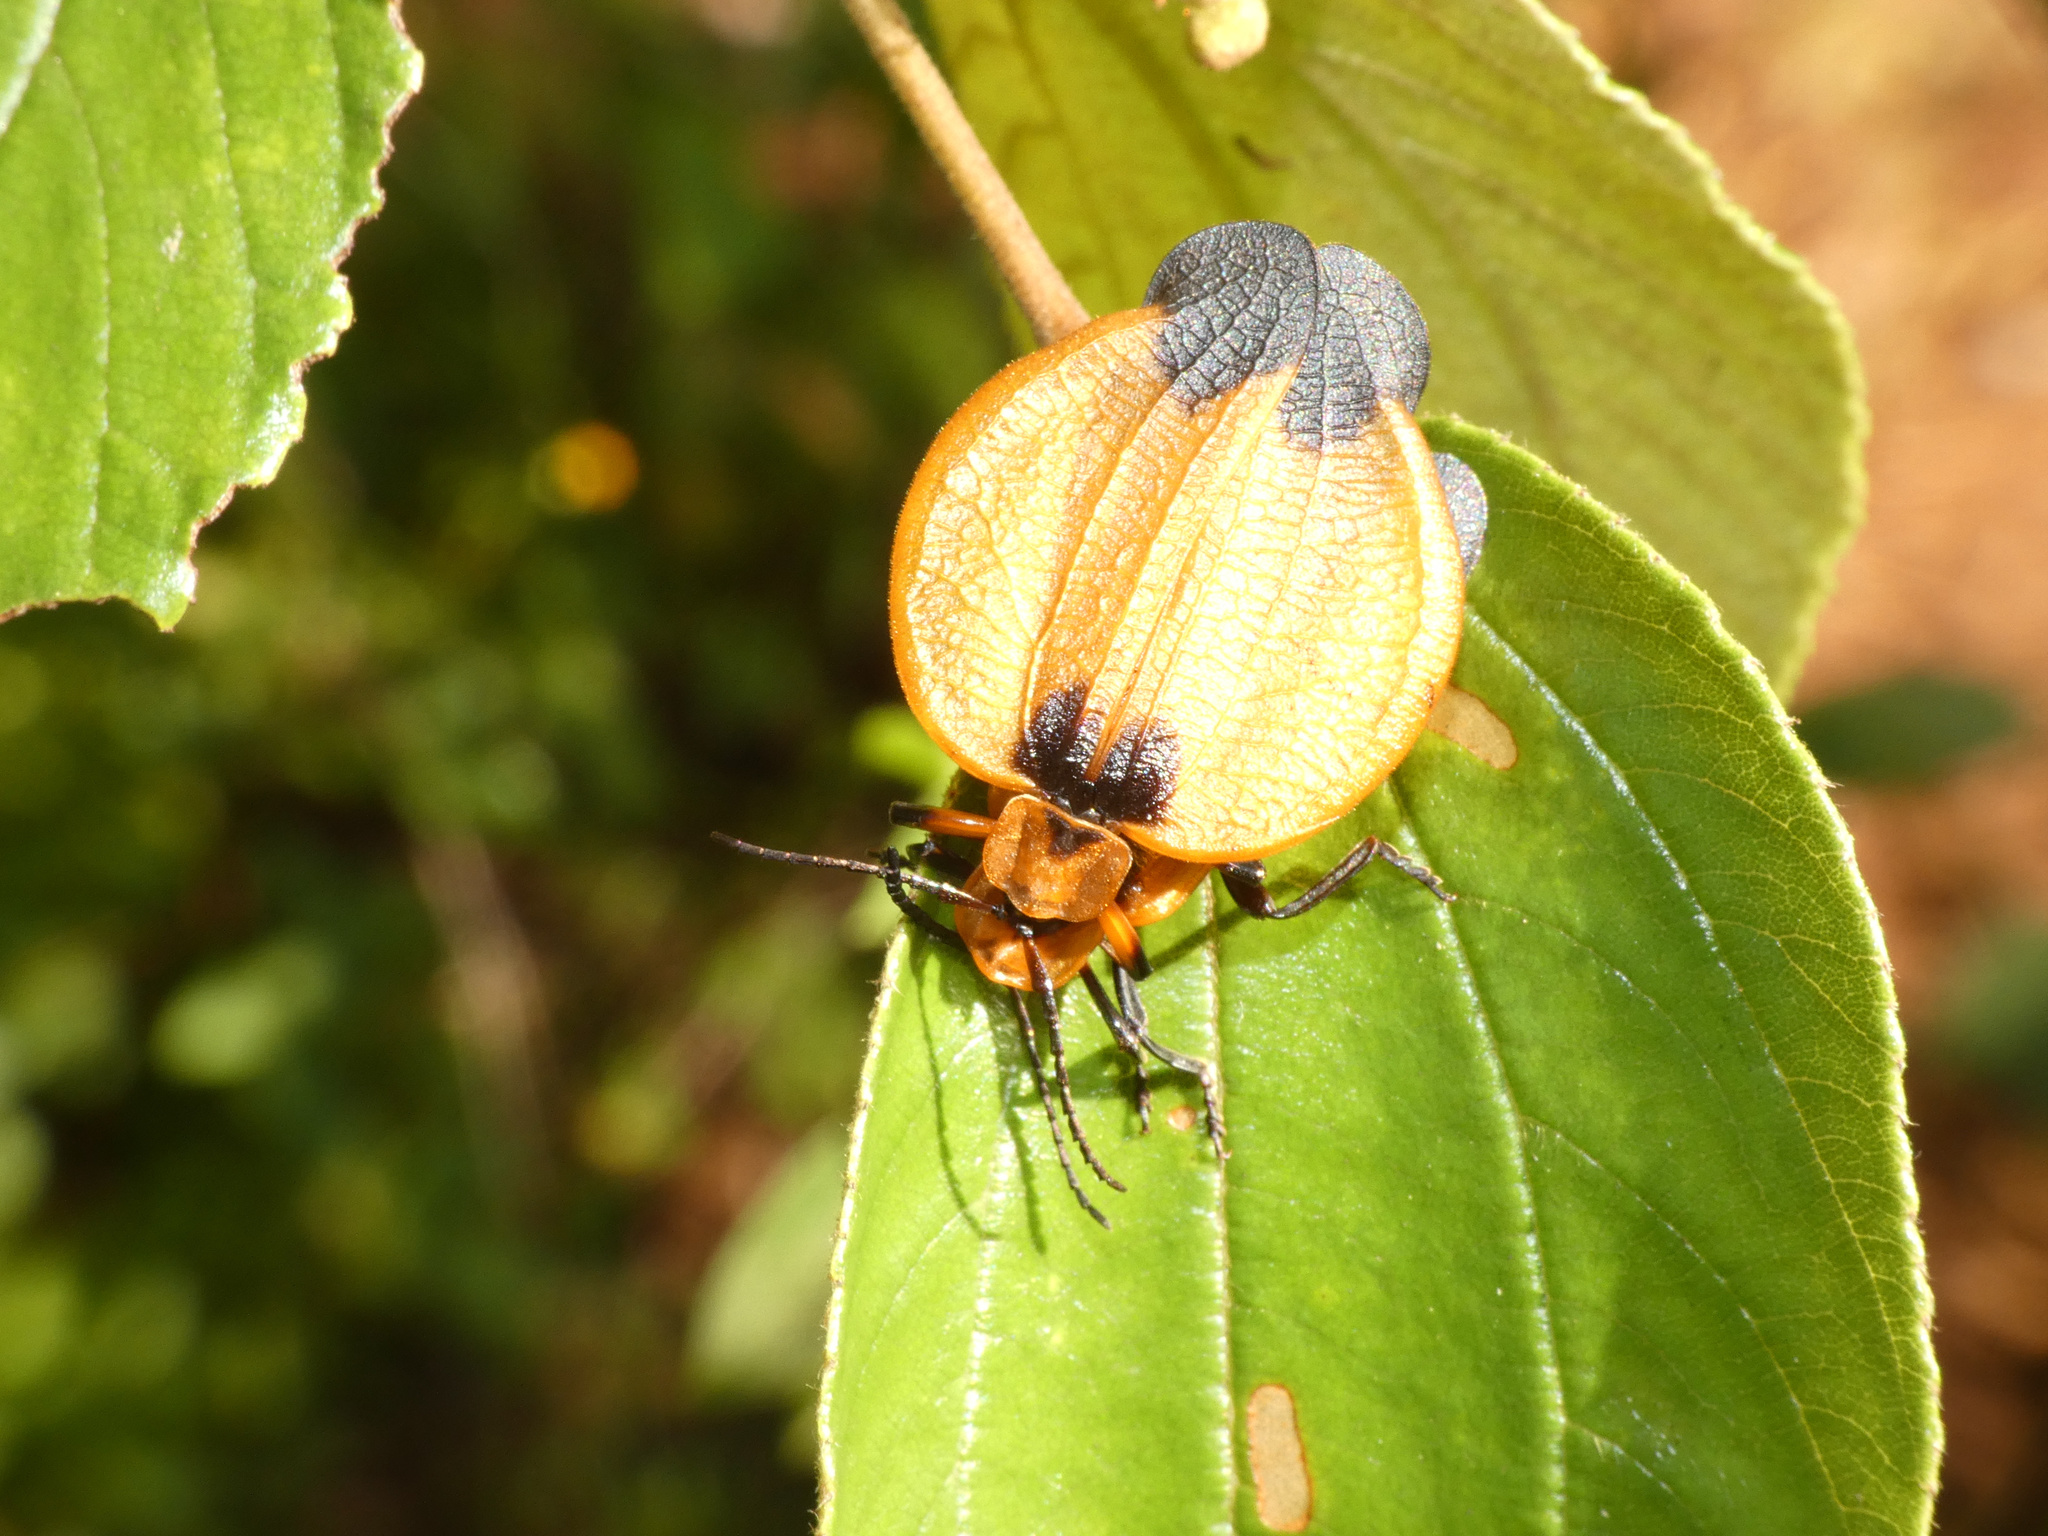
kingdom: Animalia
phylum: Arthropoda
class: Insecta
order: Coleoptera
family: Lycidae
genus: Lycus
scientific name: Lycus
